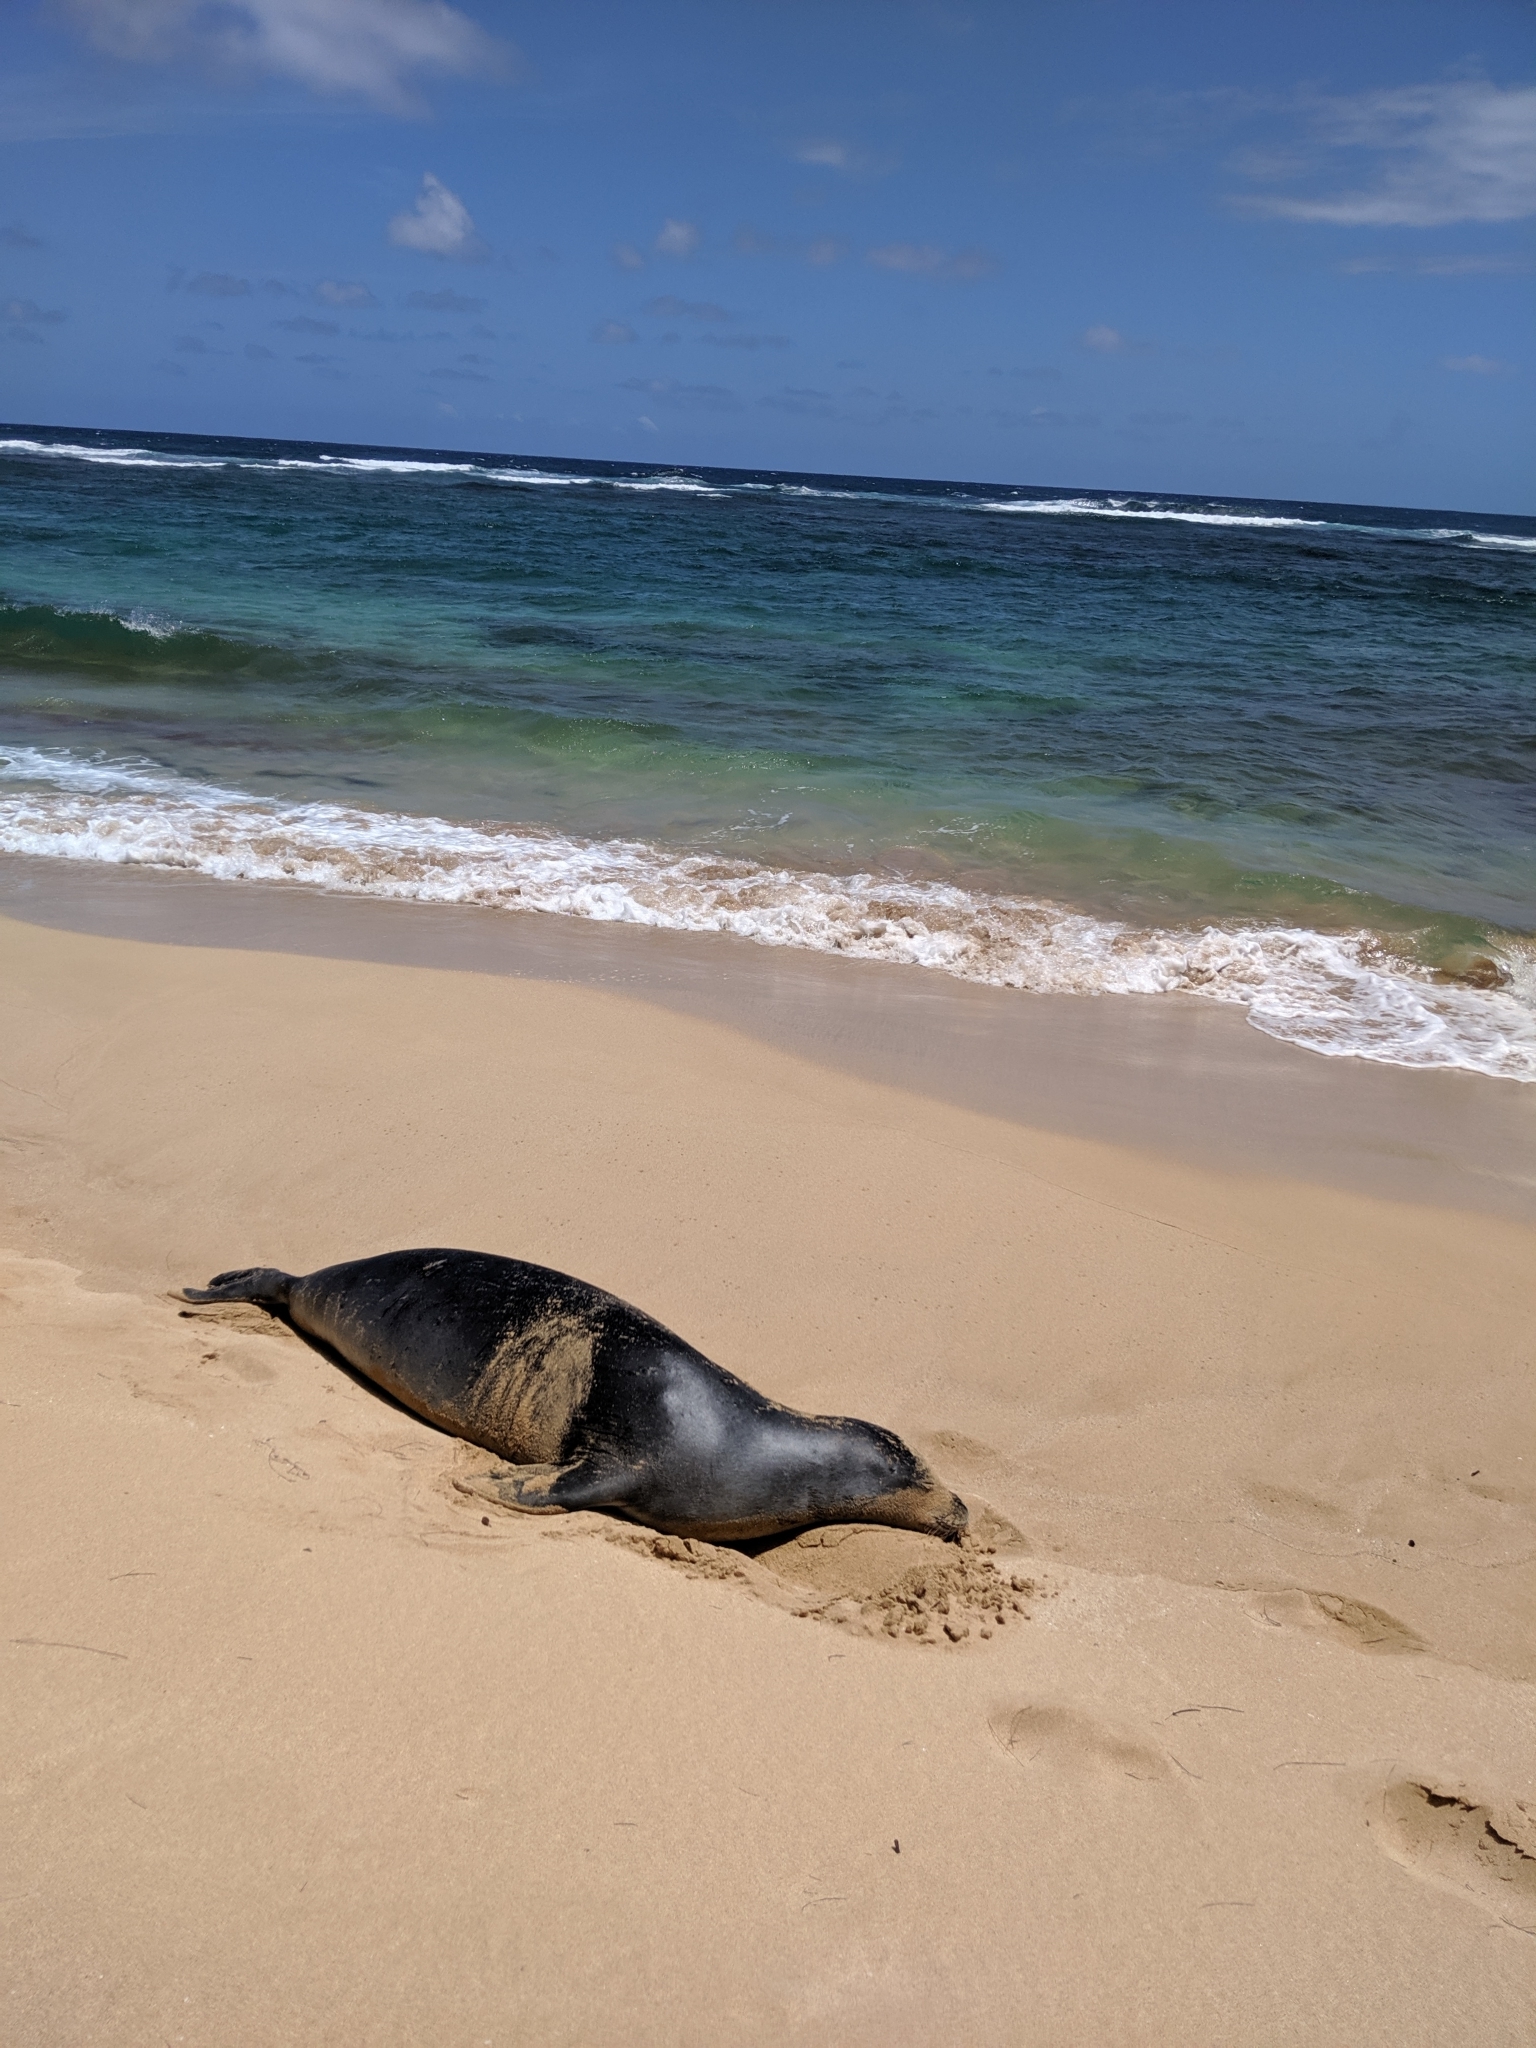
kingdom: Animalia
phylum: Chordata
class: Mammalia
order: Carnivora
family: Phocidae
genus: Neomonachus
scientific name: Neomonachus schauinslandi
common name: Hawaiian monk seal
